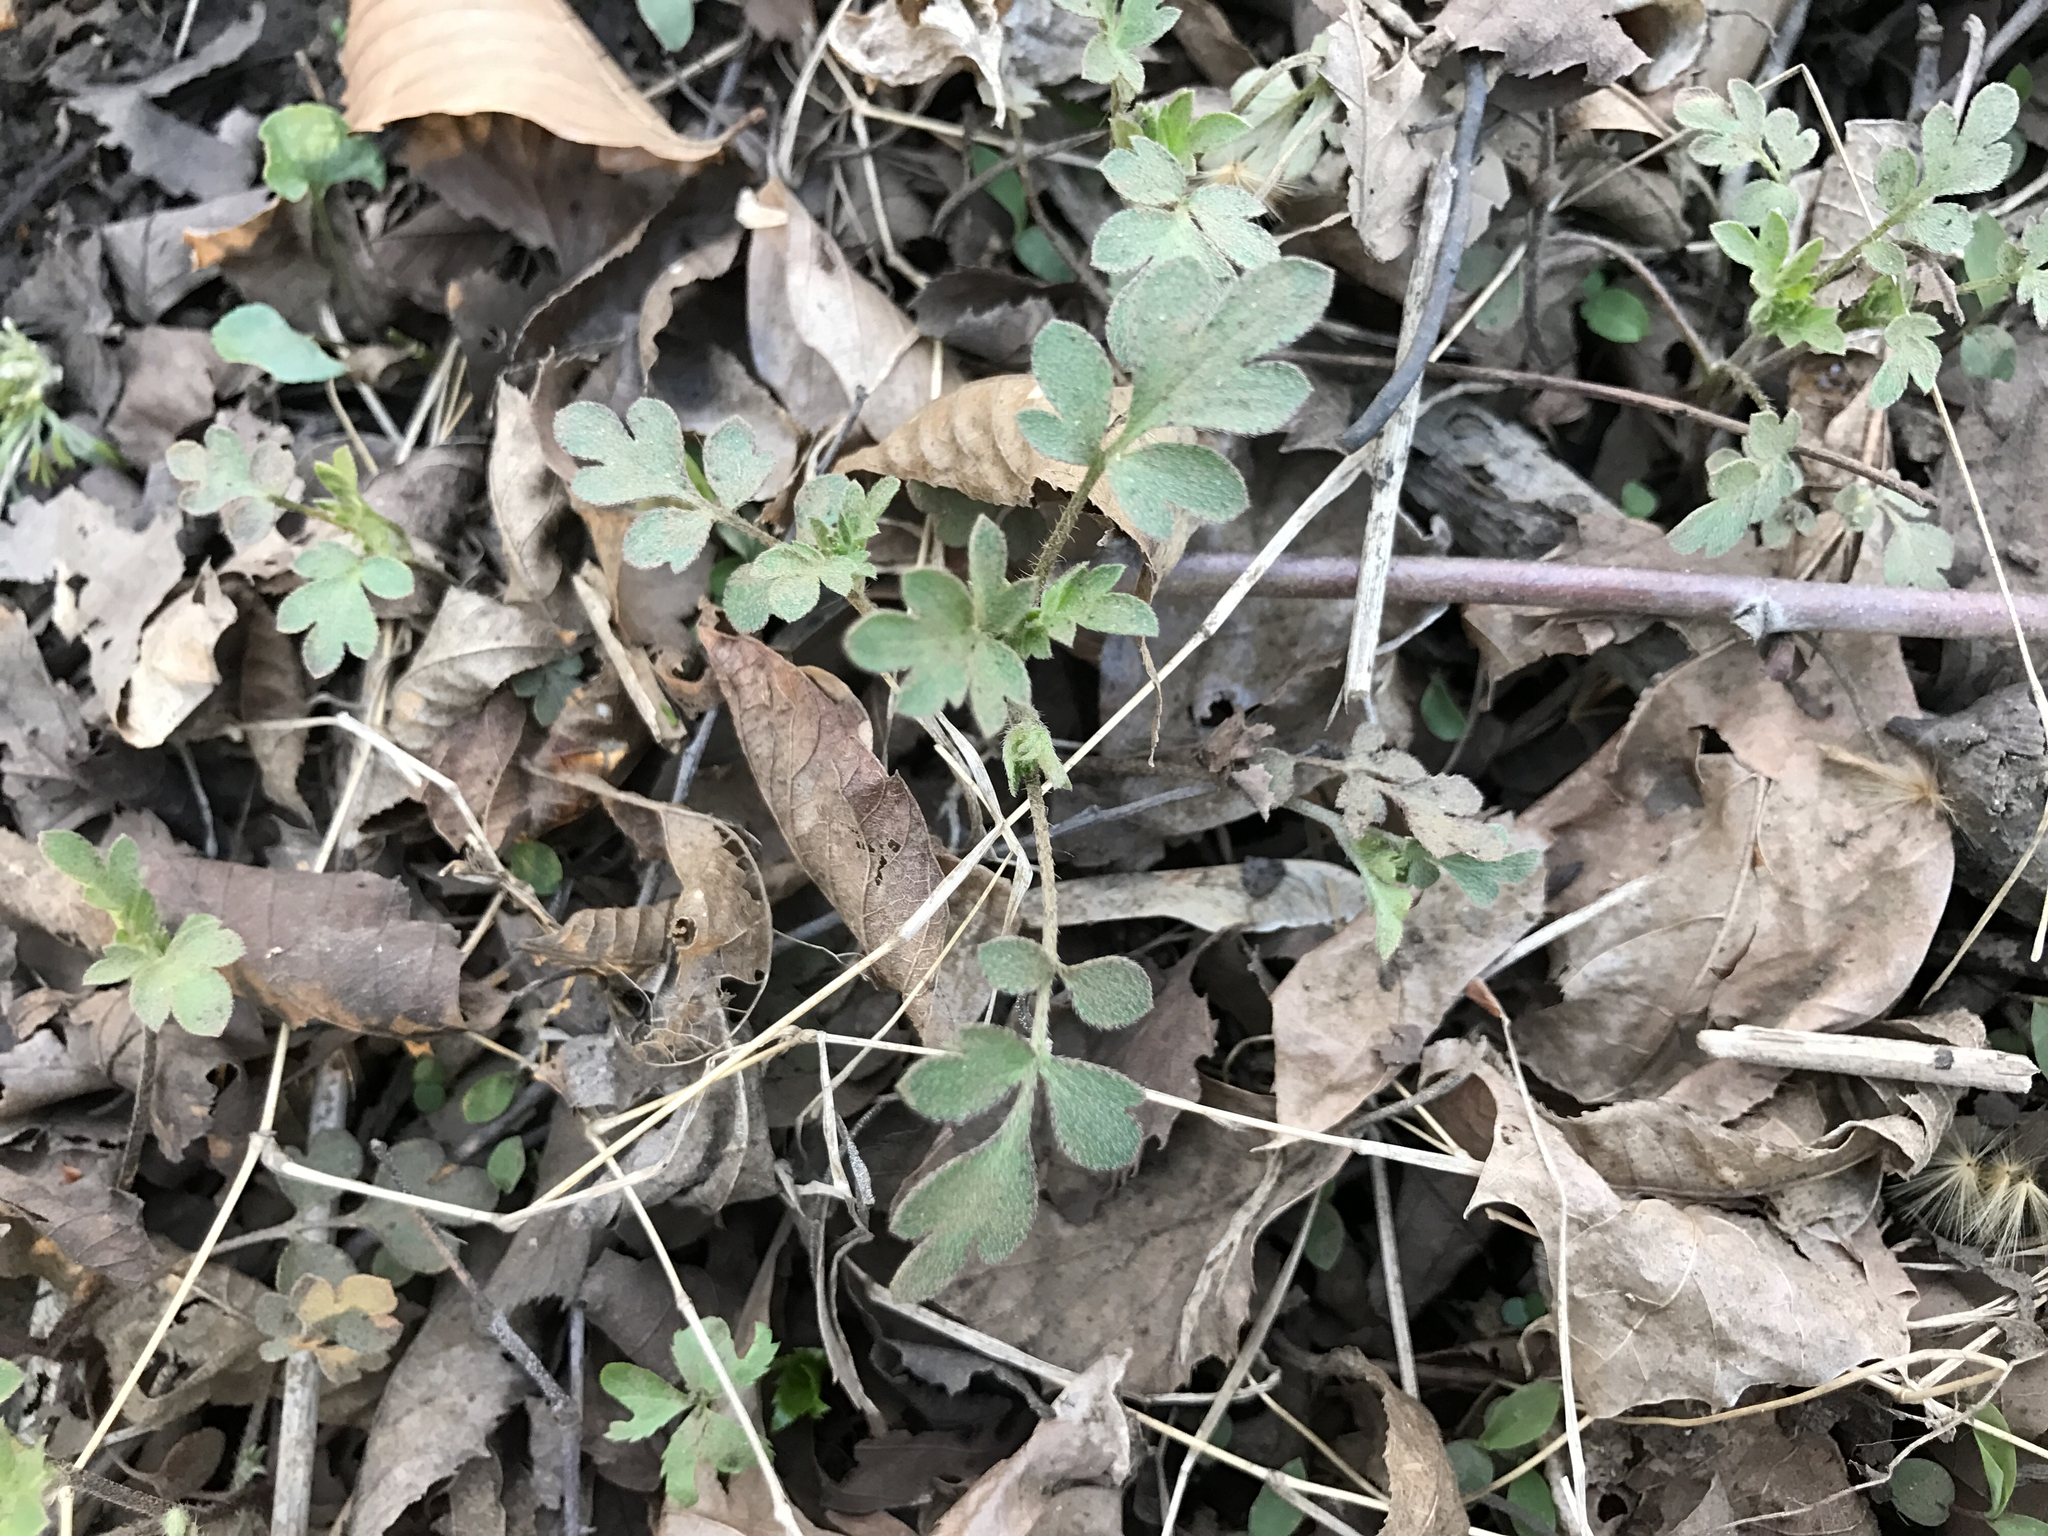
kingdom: Plantae
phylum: Tracheophyta
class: Magnoliopsida
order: Boraginales
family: Hydrophyllaceae
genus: Phacelia
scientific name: Phacelia covillei
